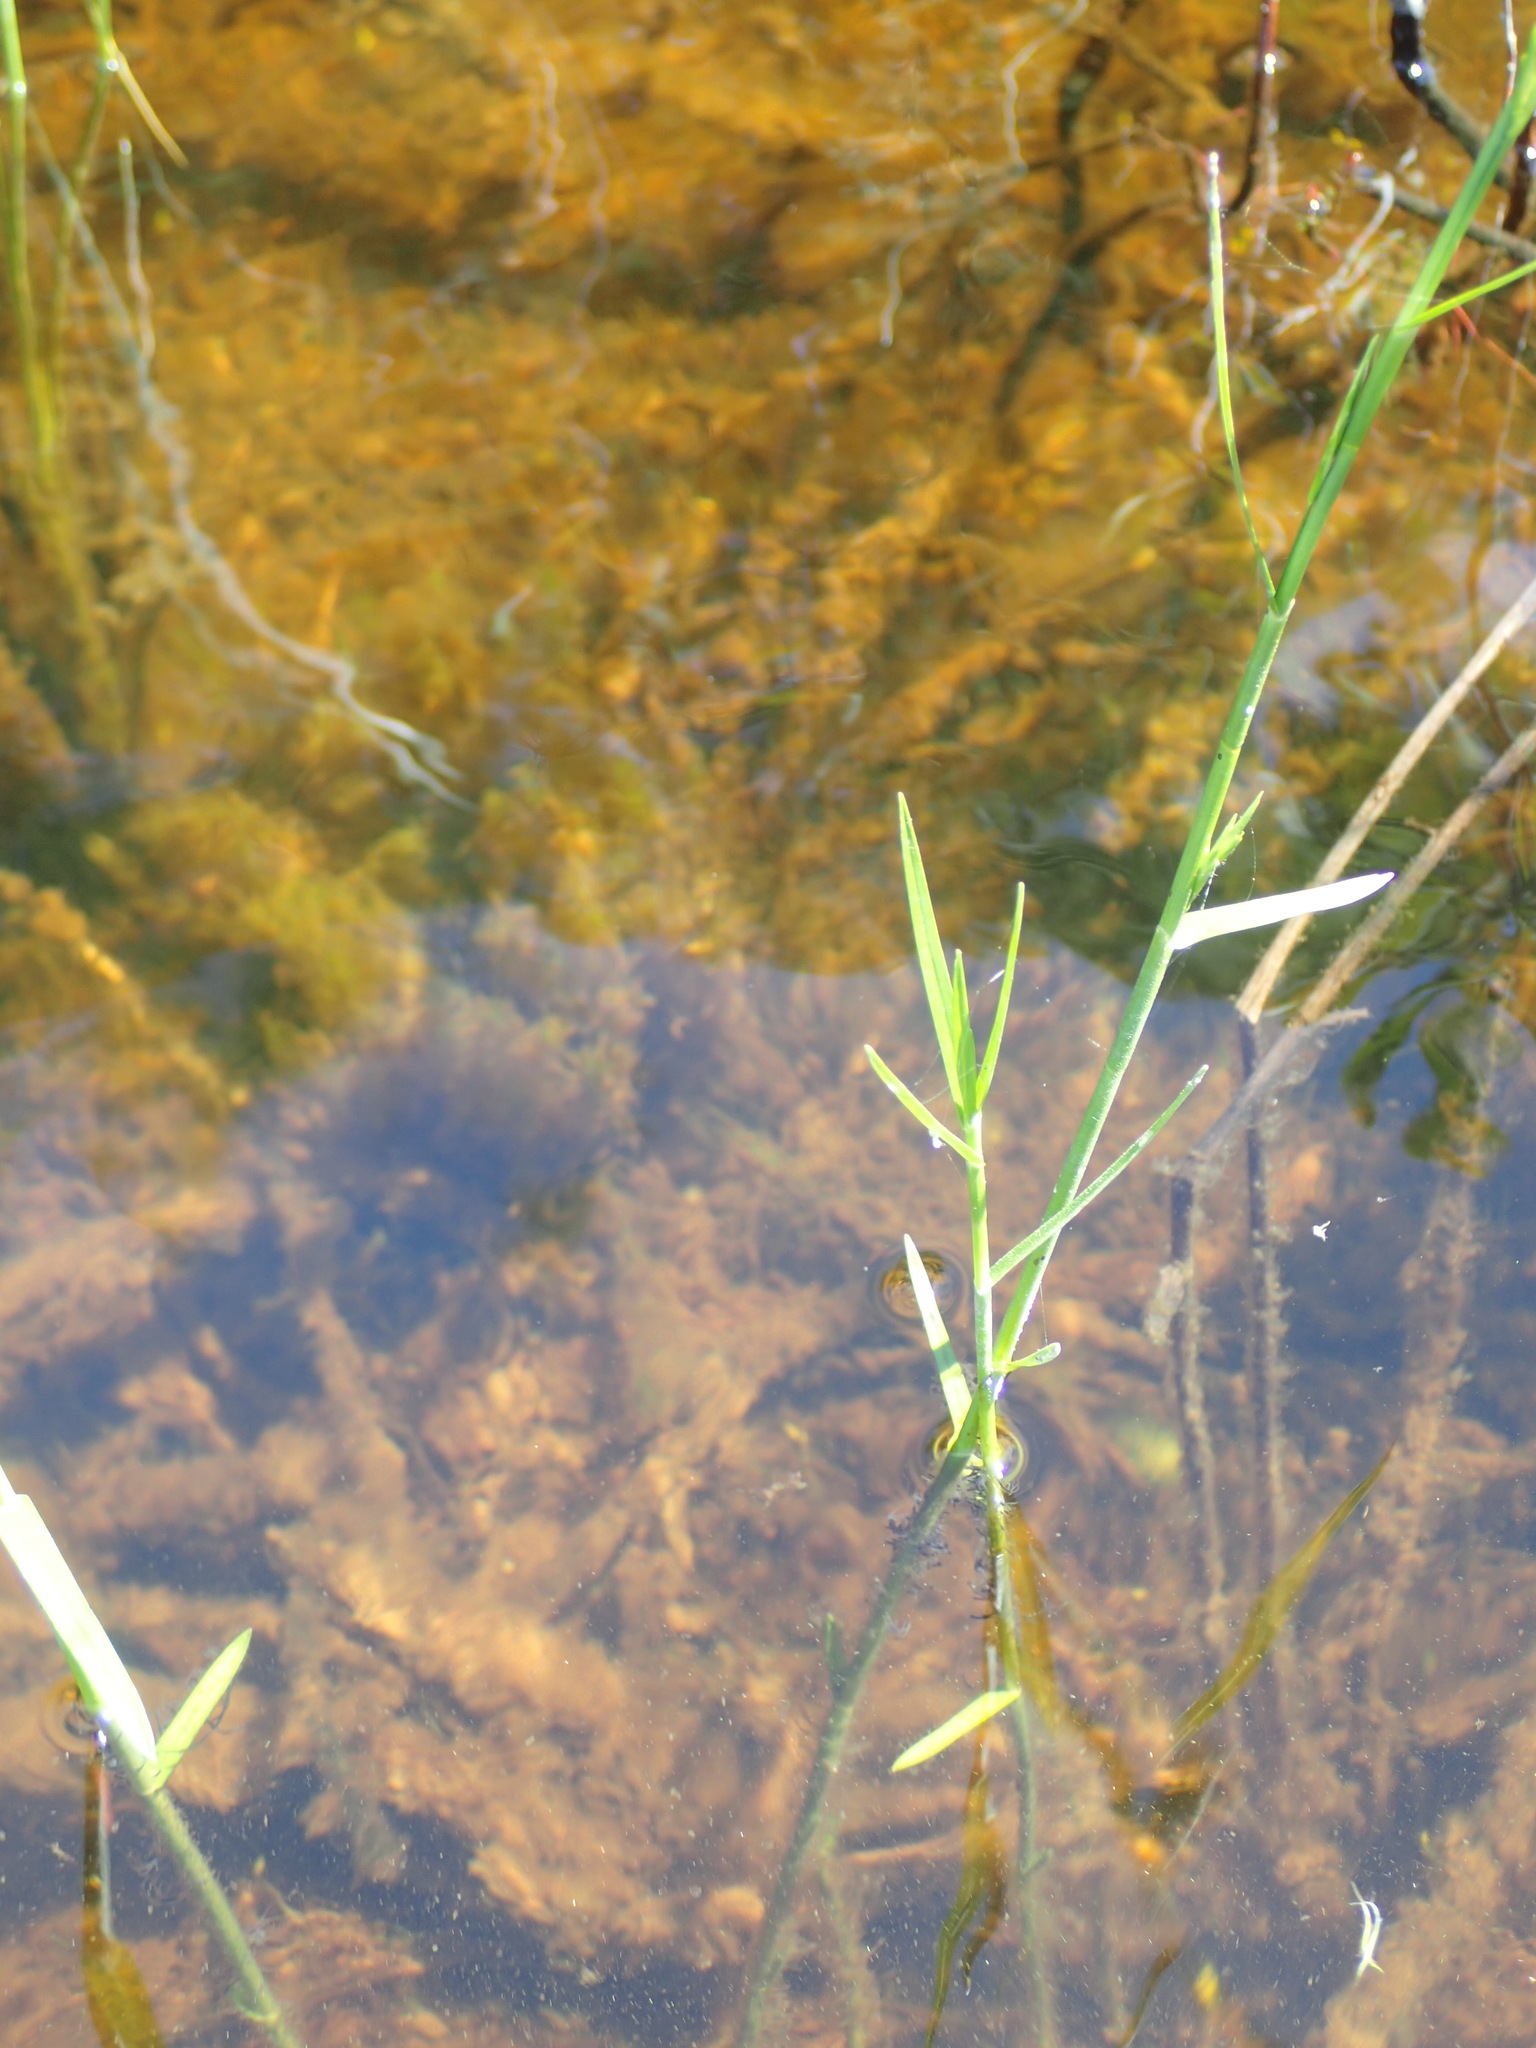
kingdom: Plantae
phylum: Tracheophyta
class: Liliopsida
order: Poales
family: Cyperaceae
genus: Dulichium
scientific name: Dulichium arundinaceum
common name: Three-way sedge
